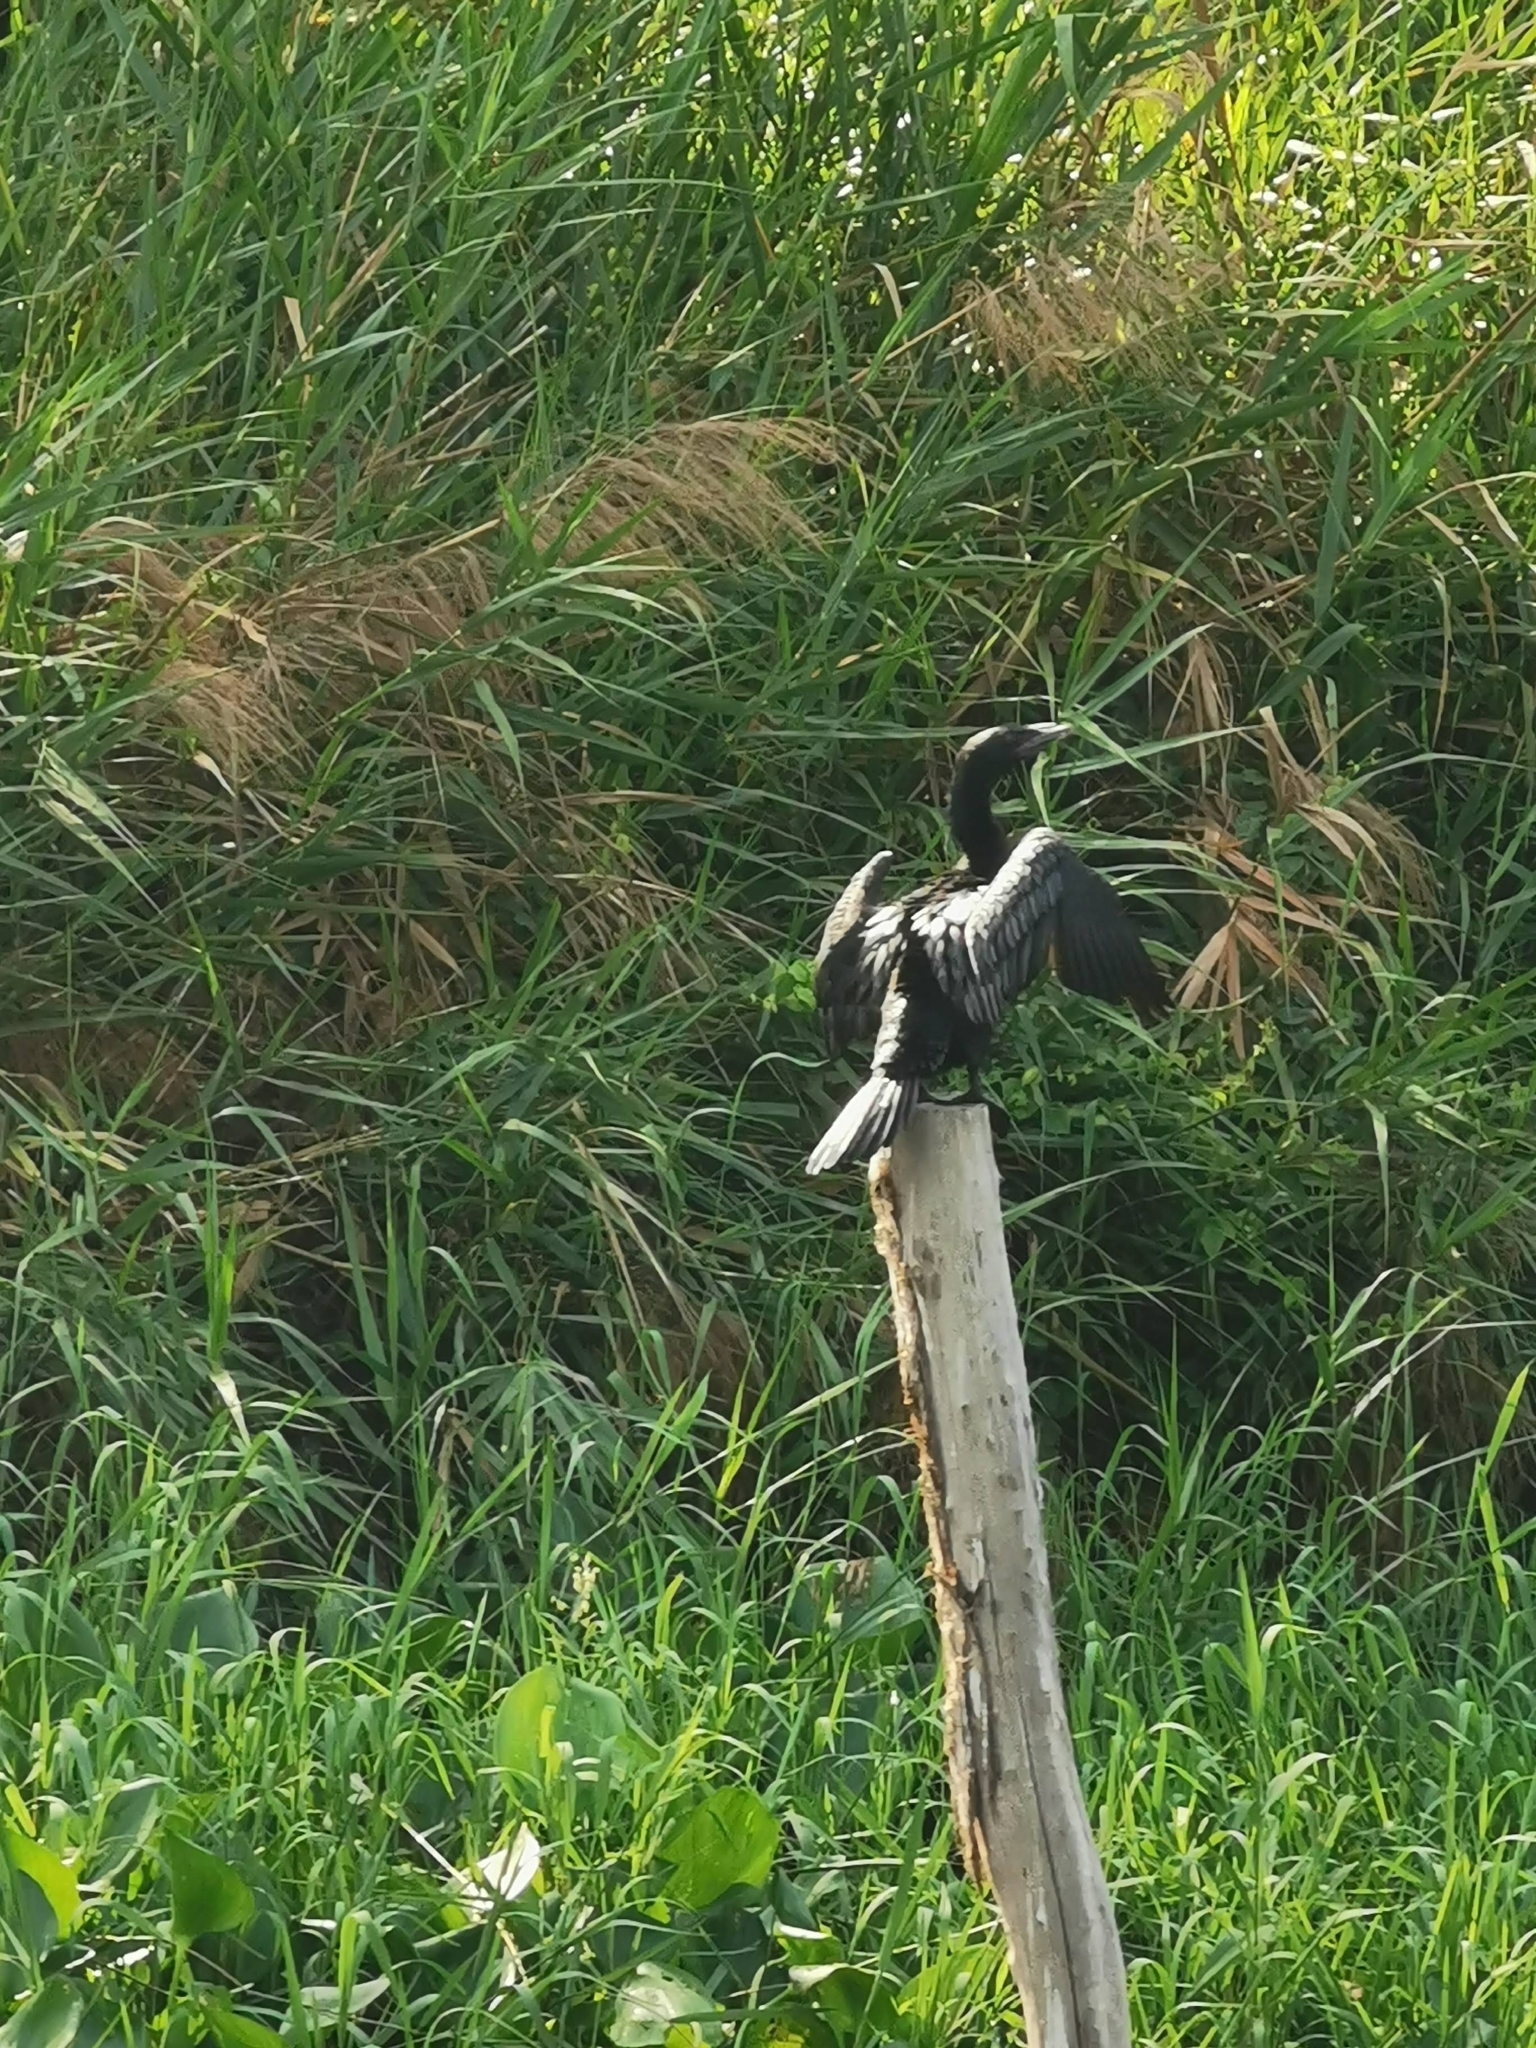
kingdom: Animalia
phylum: Chordata
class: Aves
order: Suliformes
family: Phalacrocoracidae
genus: Microcarbo
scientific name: Microcarbo niger
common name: Little cormorant
